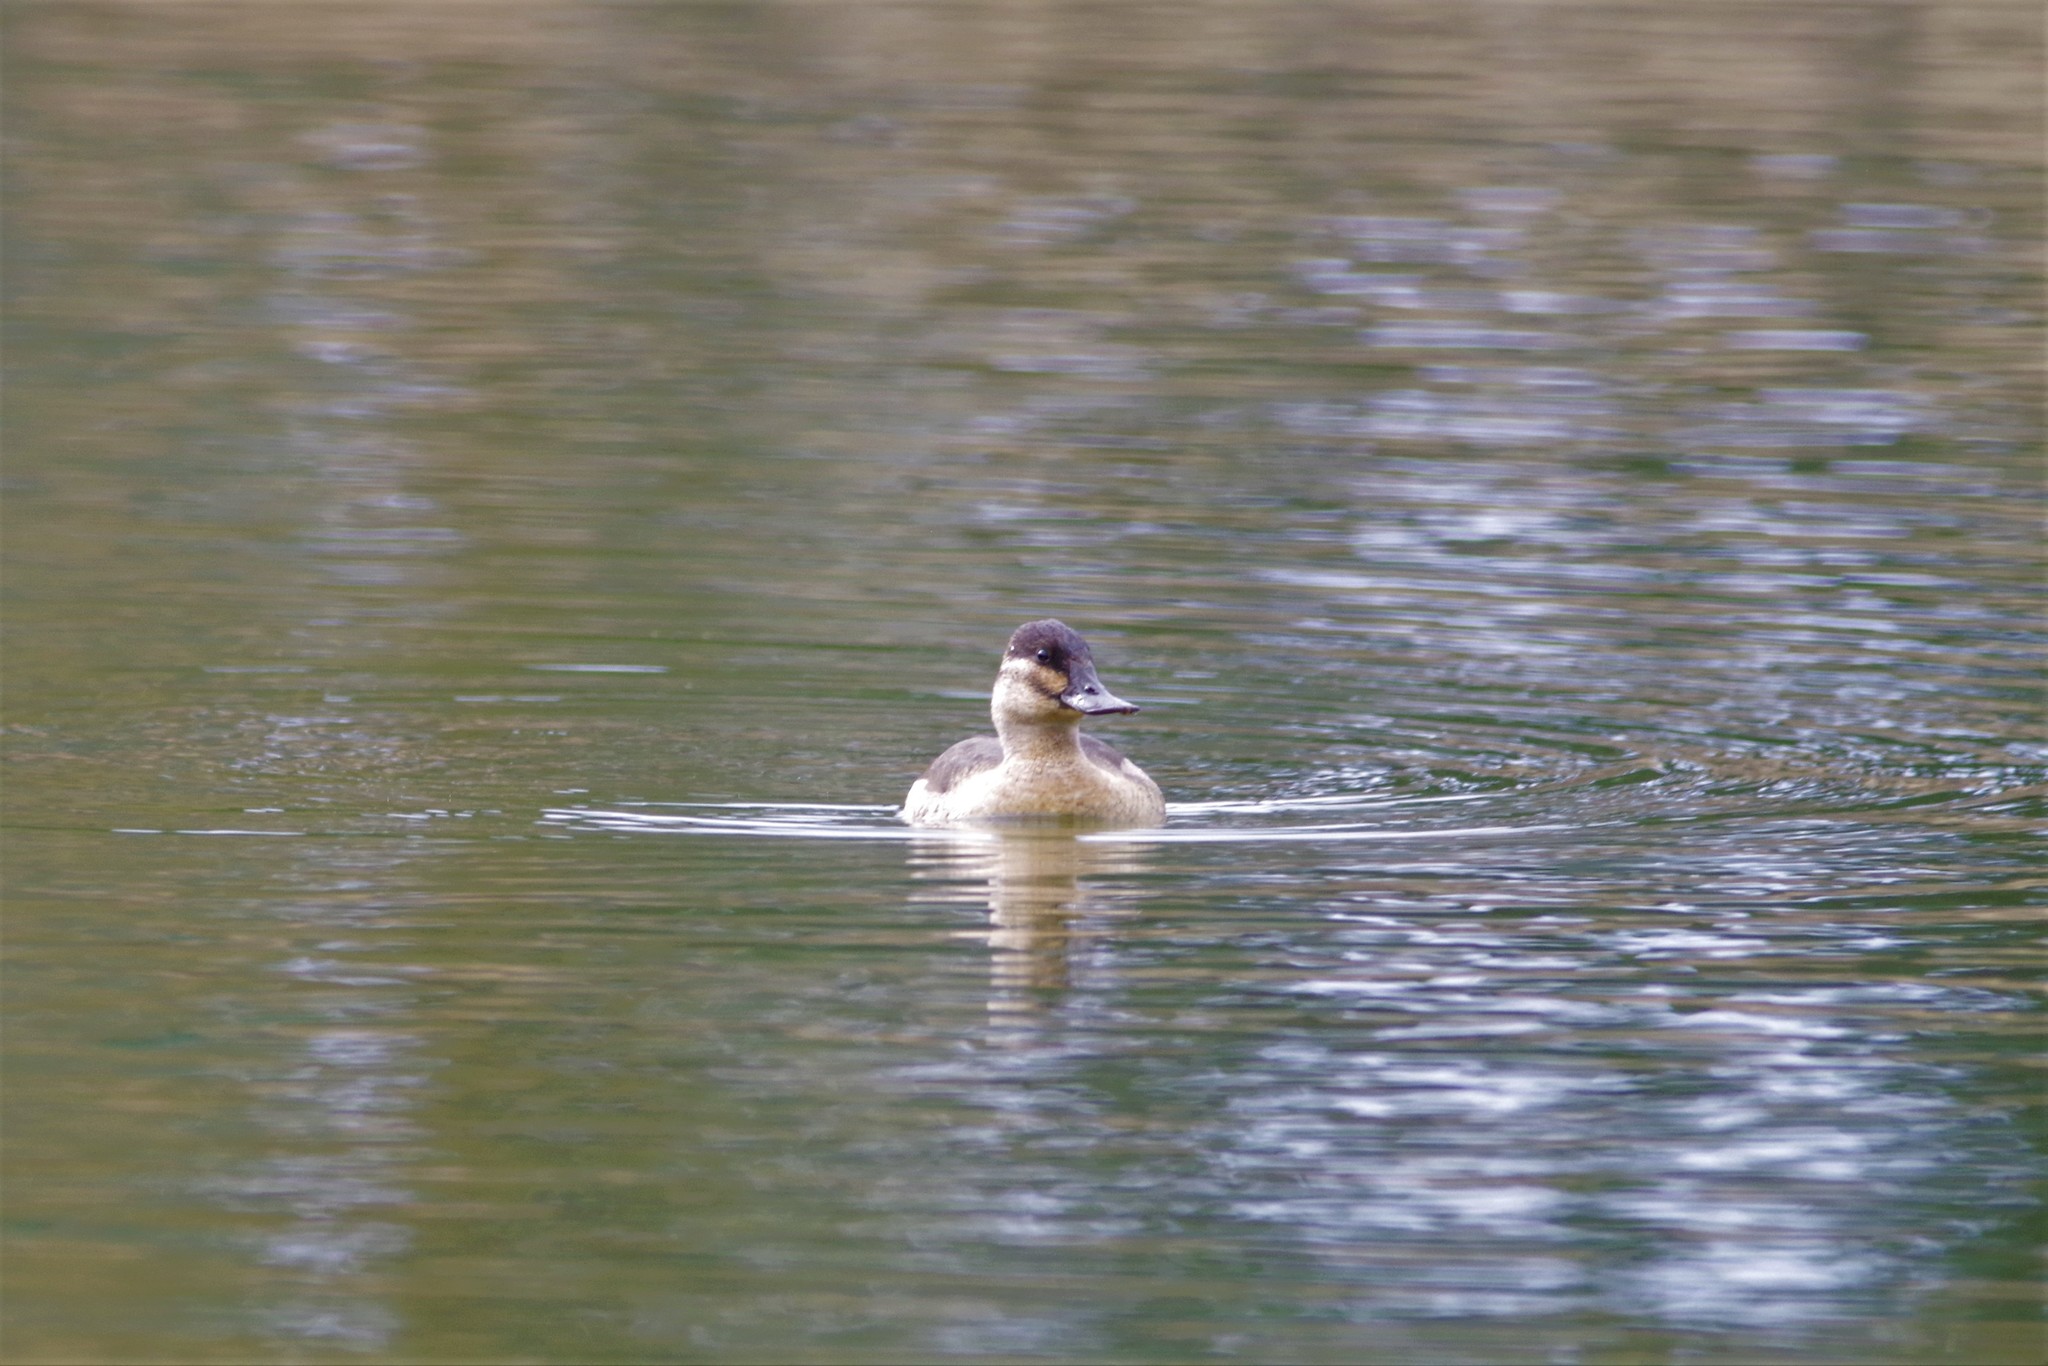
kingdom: Animalia
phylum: Chordata
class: Aves
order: Anseriformes
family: Anatidae
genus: Oxyura
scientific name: Oxyura jamaicensis
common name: Ruddy duck
